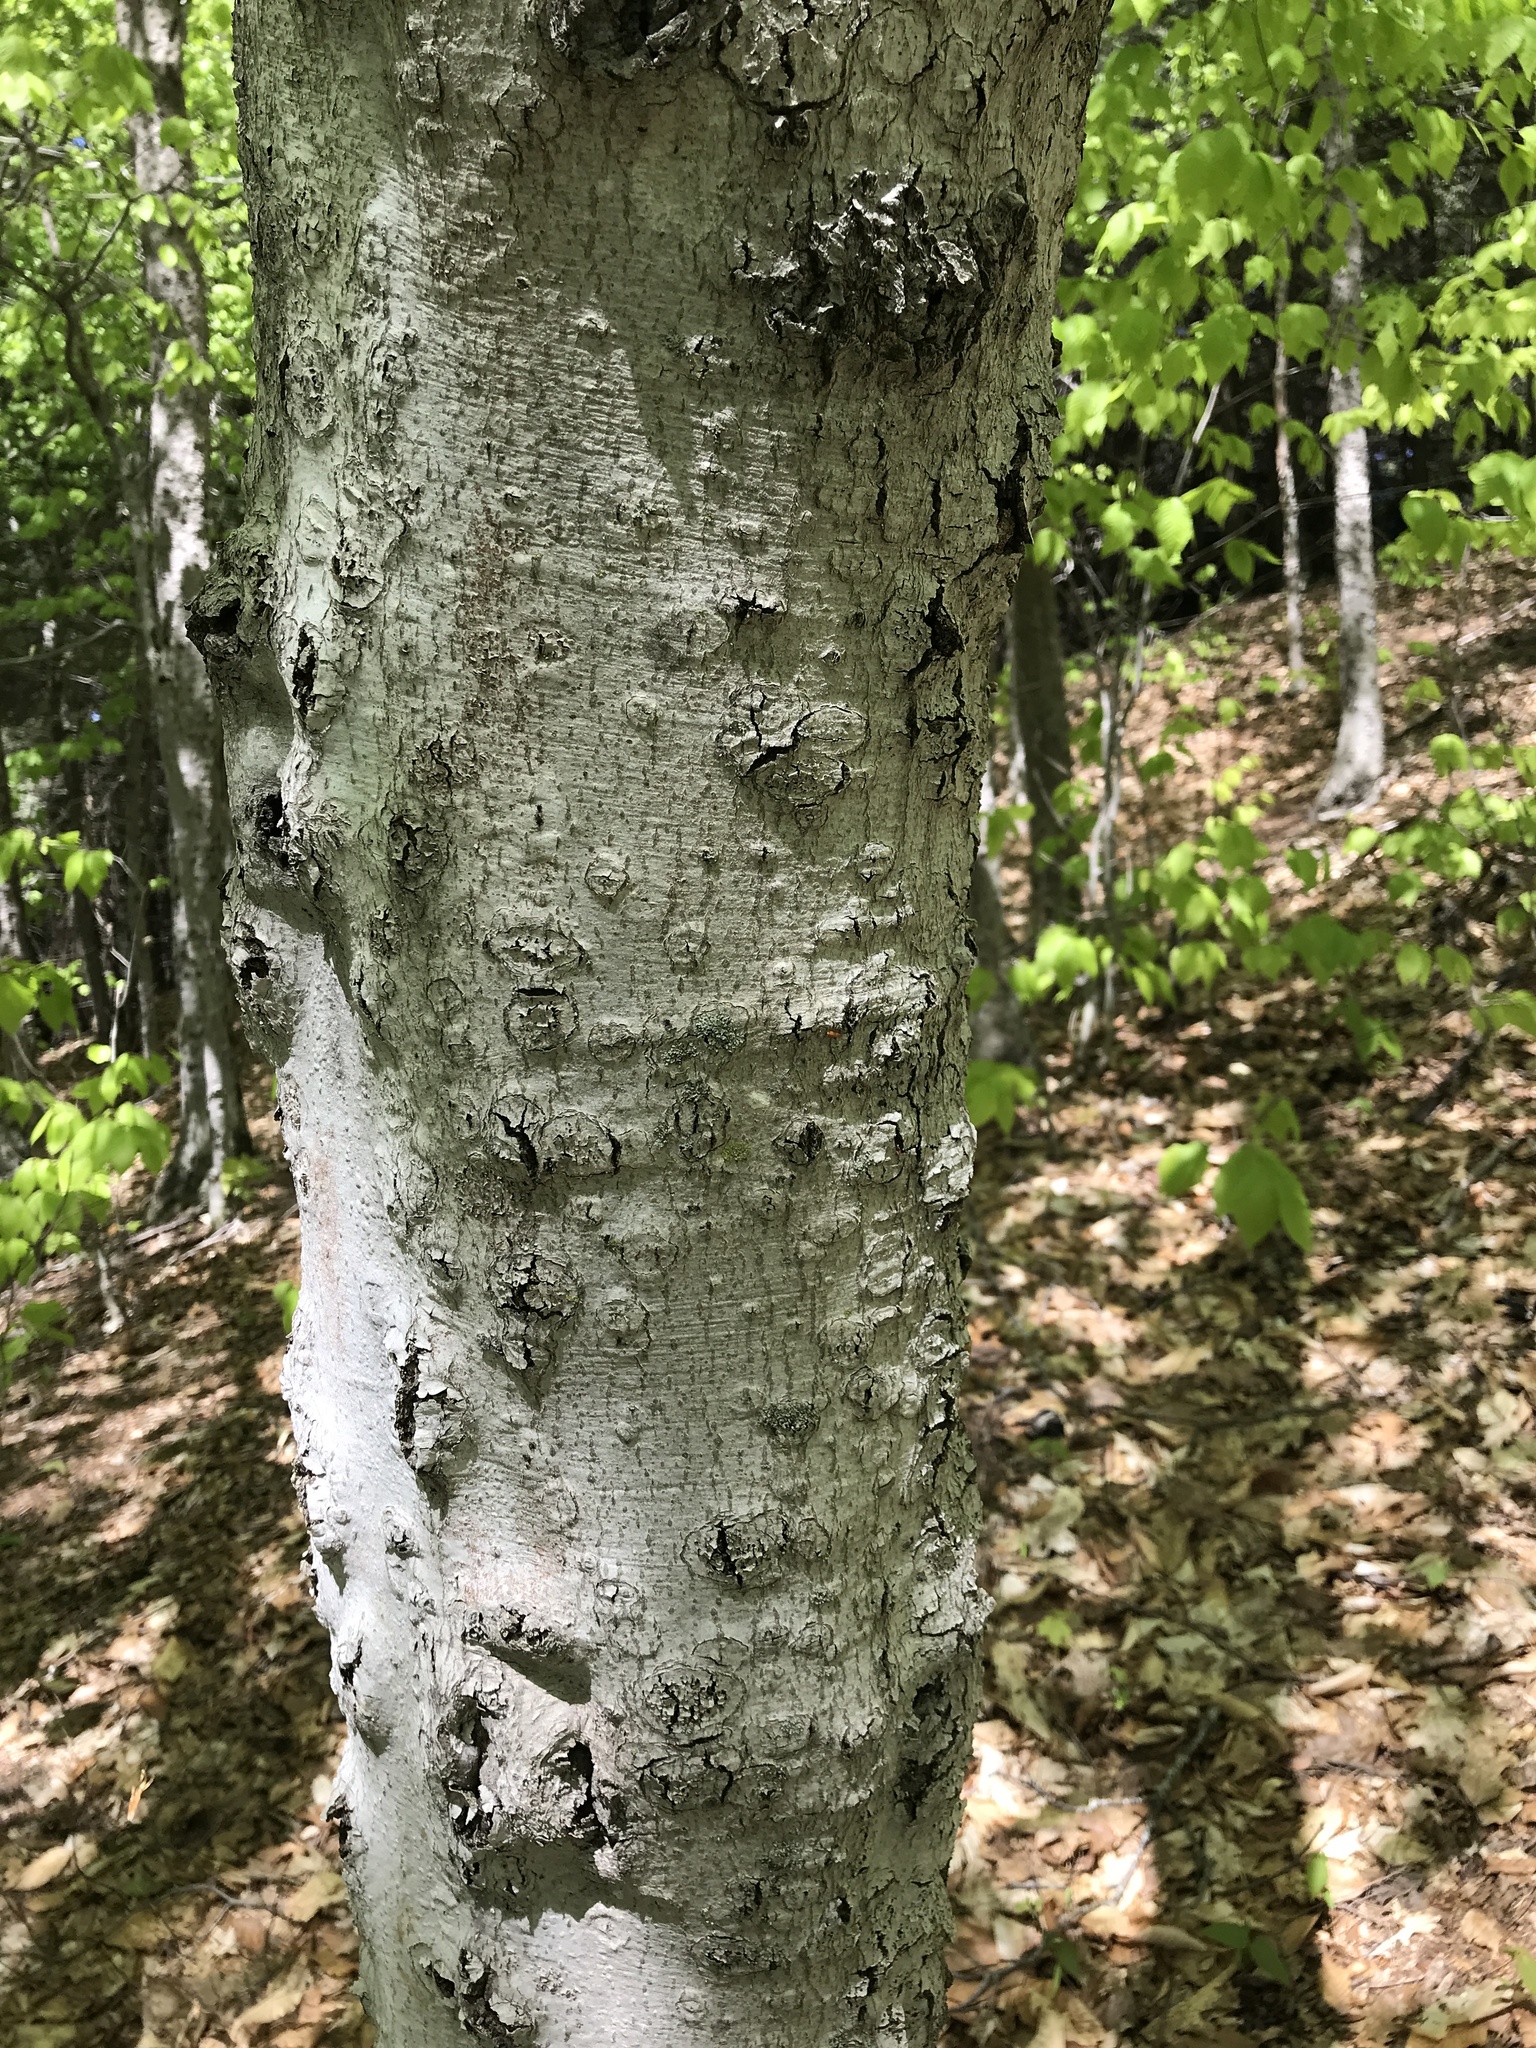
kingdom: Plantae
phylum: Tracheophyta
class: Magnoliopsida
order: Fagales
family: Fagaceae
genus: Fagus
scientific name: Fagus grandifolia
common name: American beech
